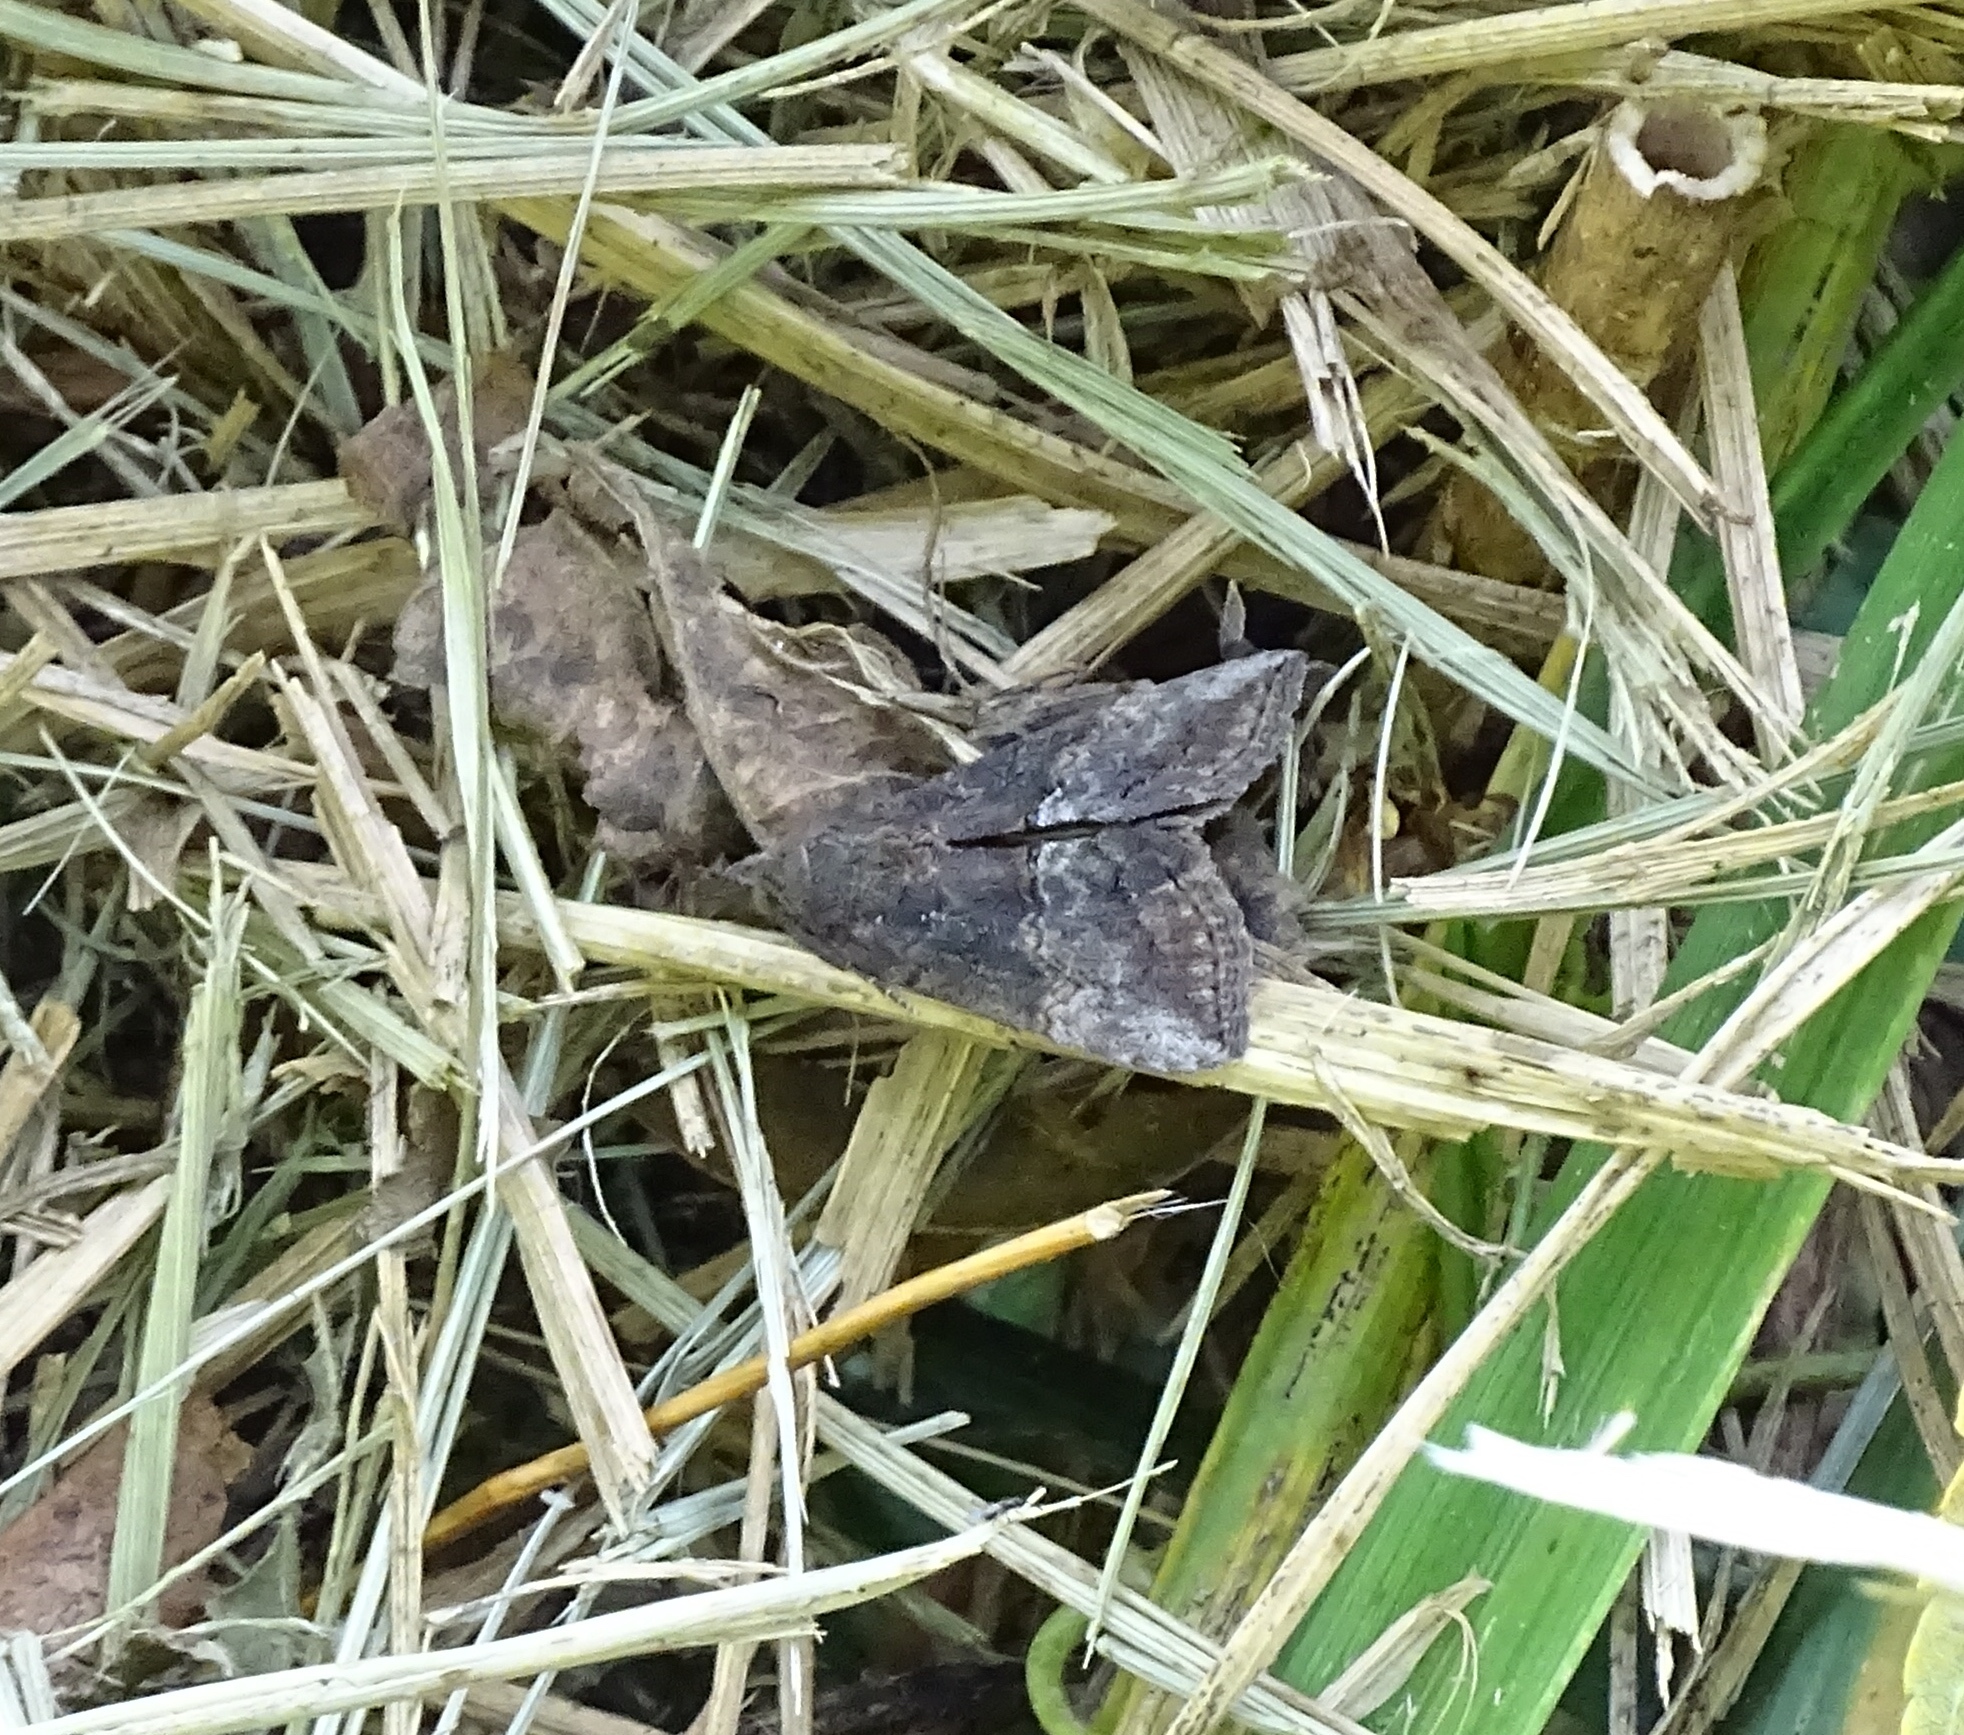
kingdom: Animalia
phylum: Arthropoda
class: Insecta
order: Lepidoptera
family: Erebidae
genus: Hypena
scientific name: Hypena scabra
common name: Green cloverworm
